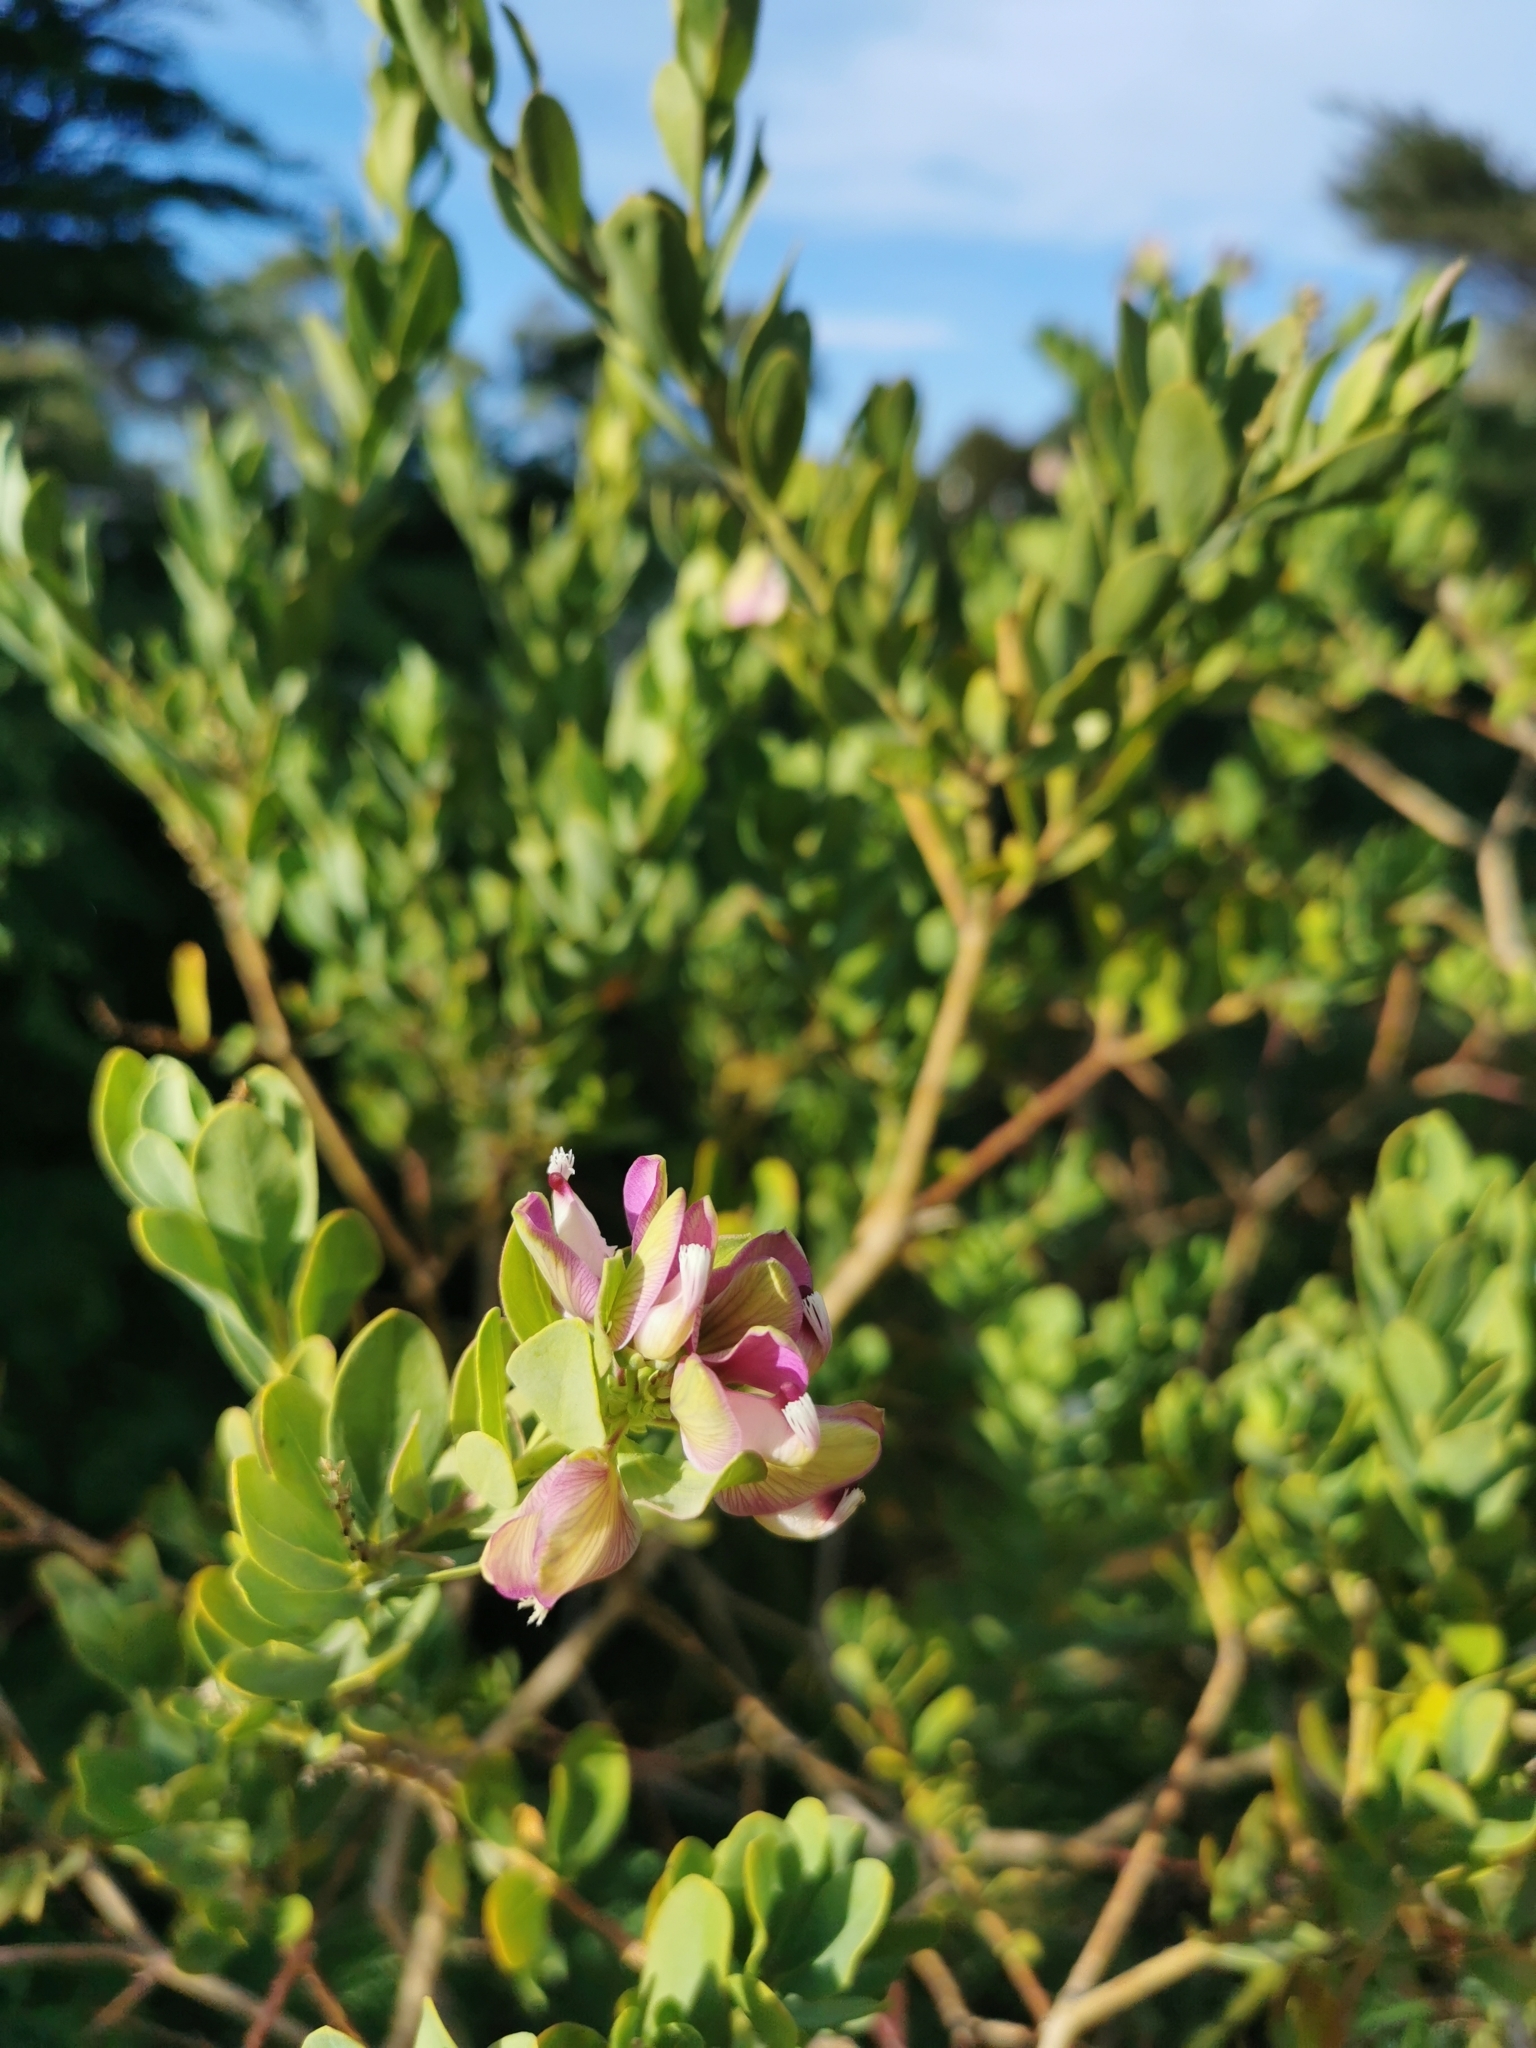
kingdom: Plantae
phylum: Tracheophyta
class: Magnoliopsida
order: Fabales
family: Polygalaceae
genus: Polygala
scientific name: Polygala myrtifolia
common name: Myrtle-leaf milkwort
